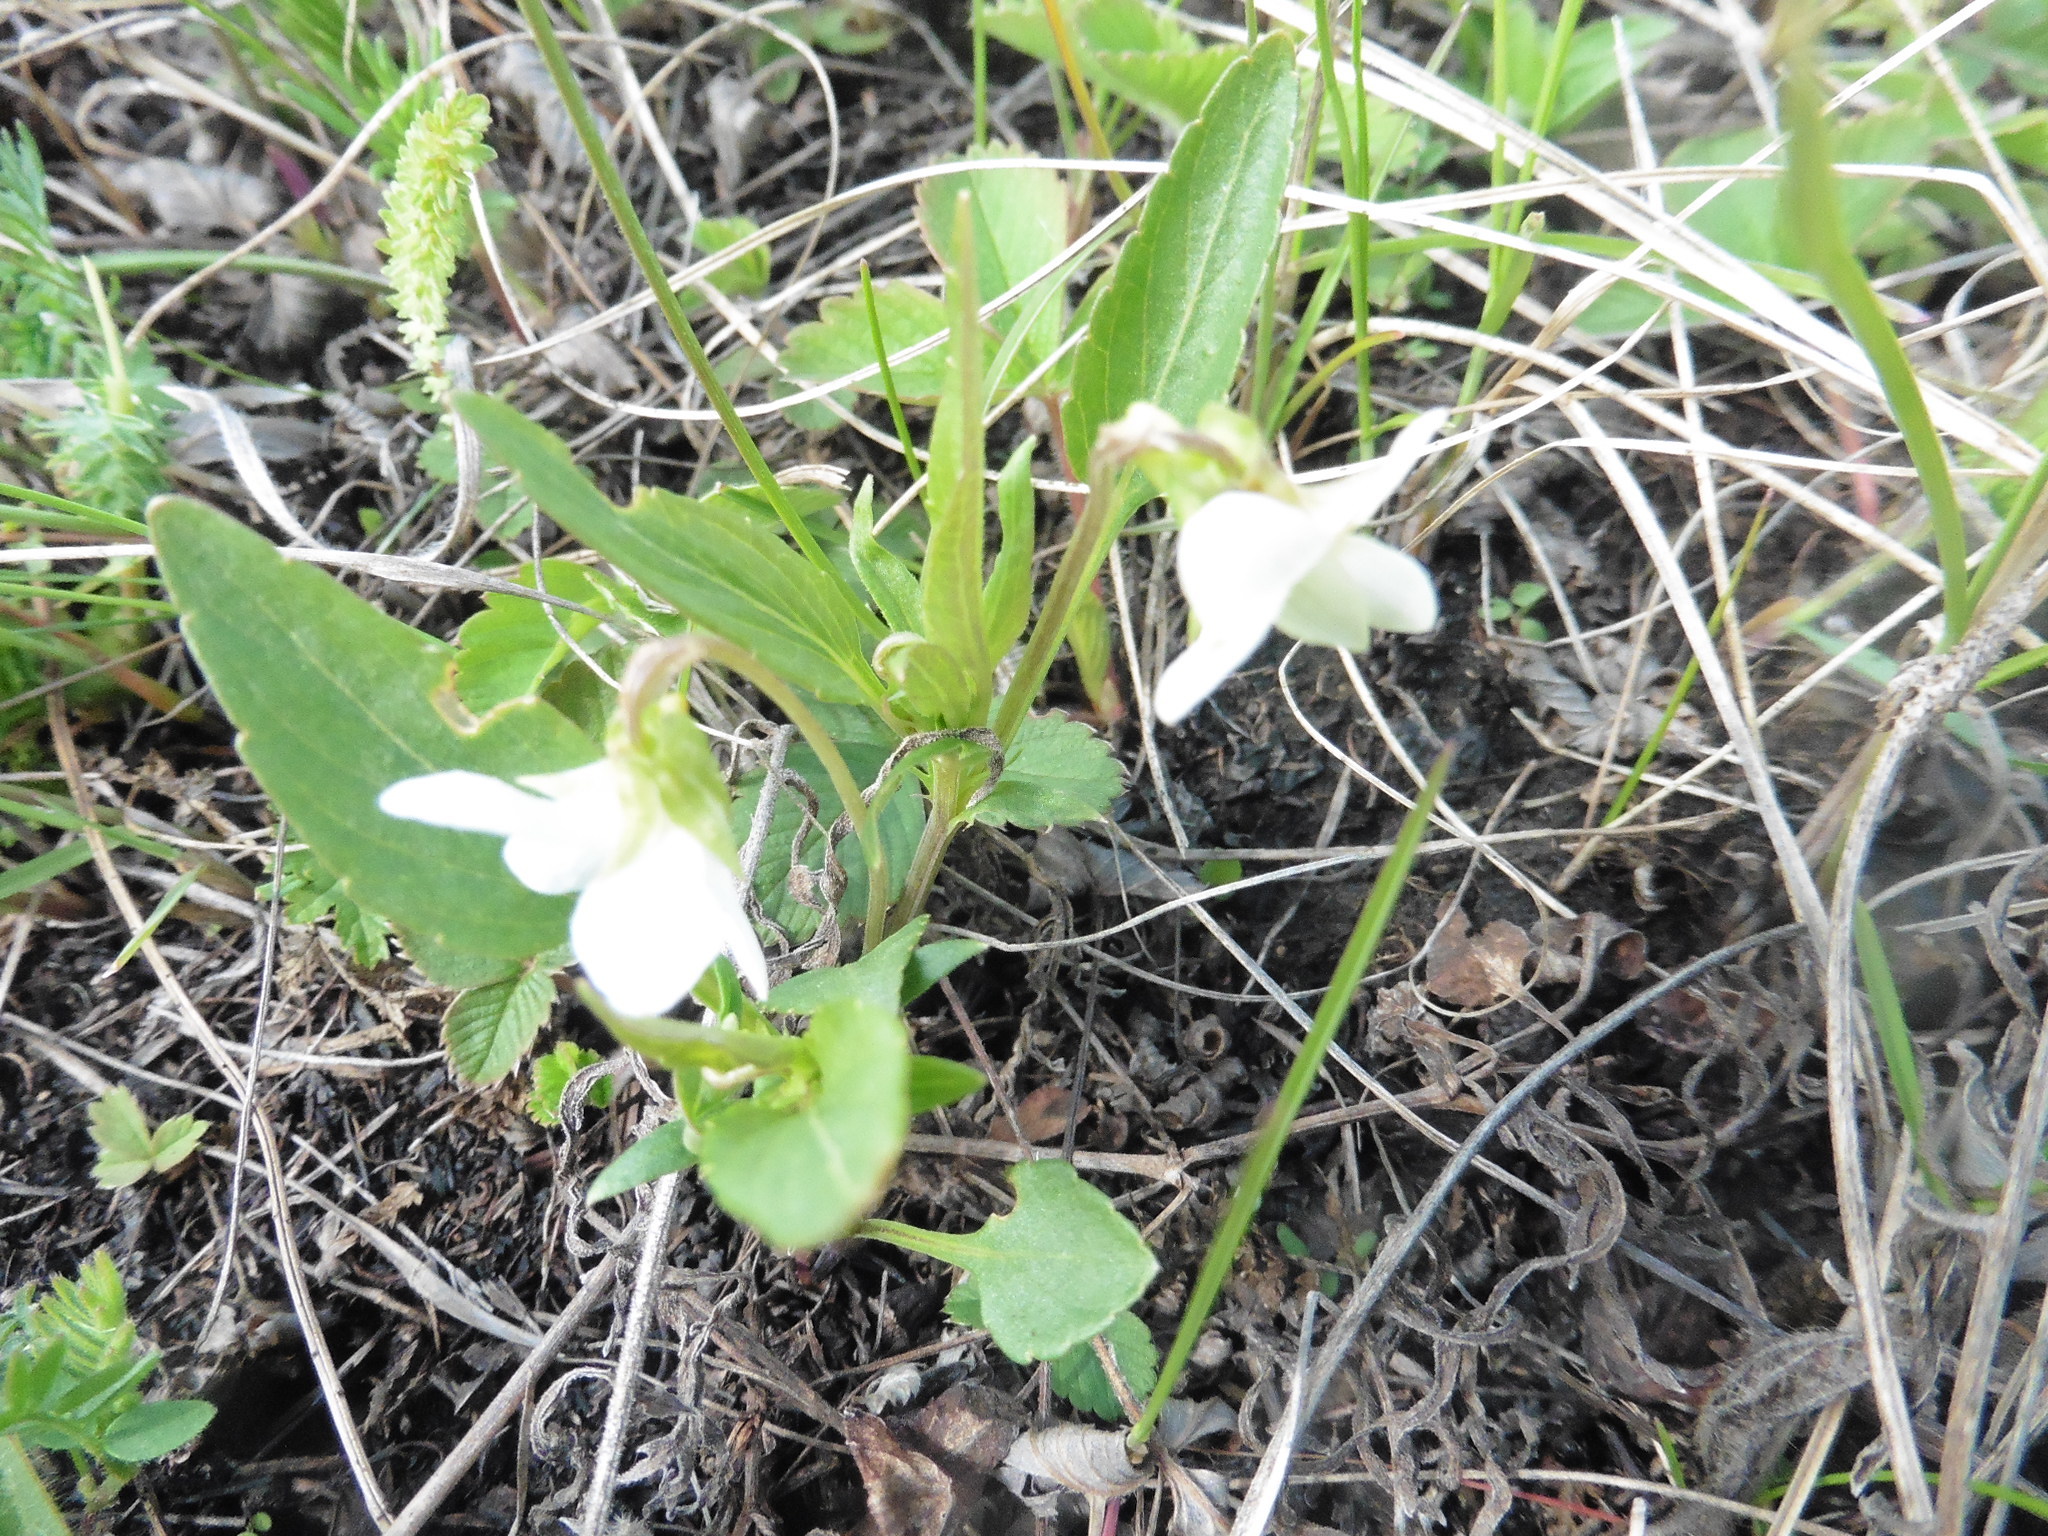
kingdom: Plantae
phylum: Tracheophyta
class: Magnoliopsida
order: Malpighiales
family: Violaceae
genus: Viola
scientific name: Viola pumila
